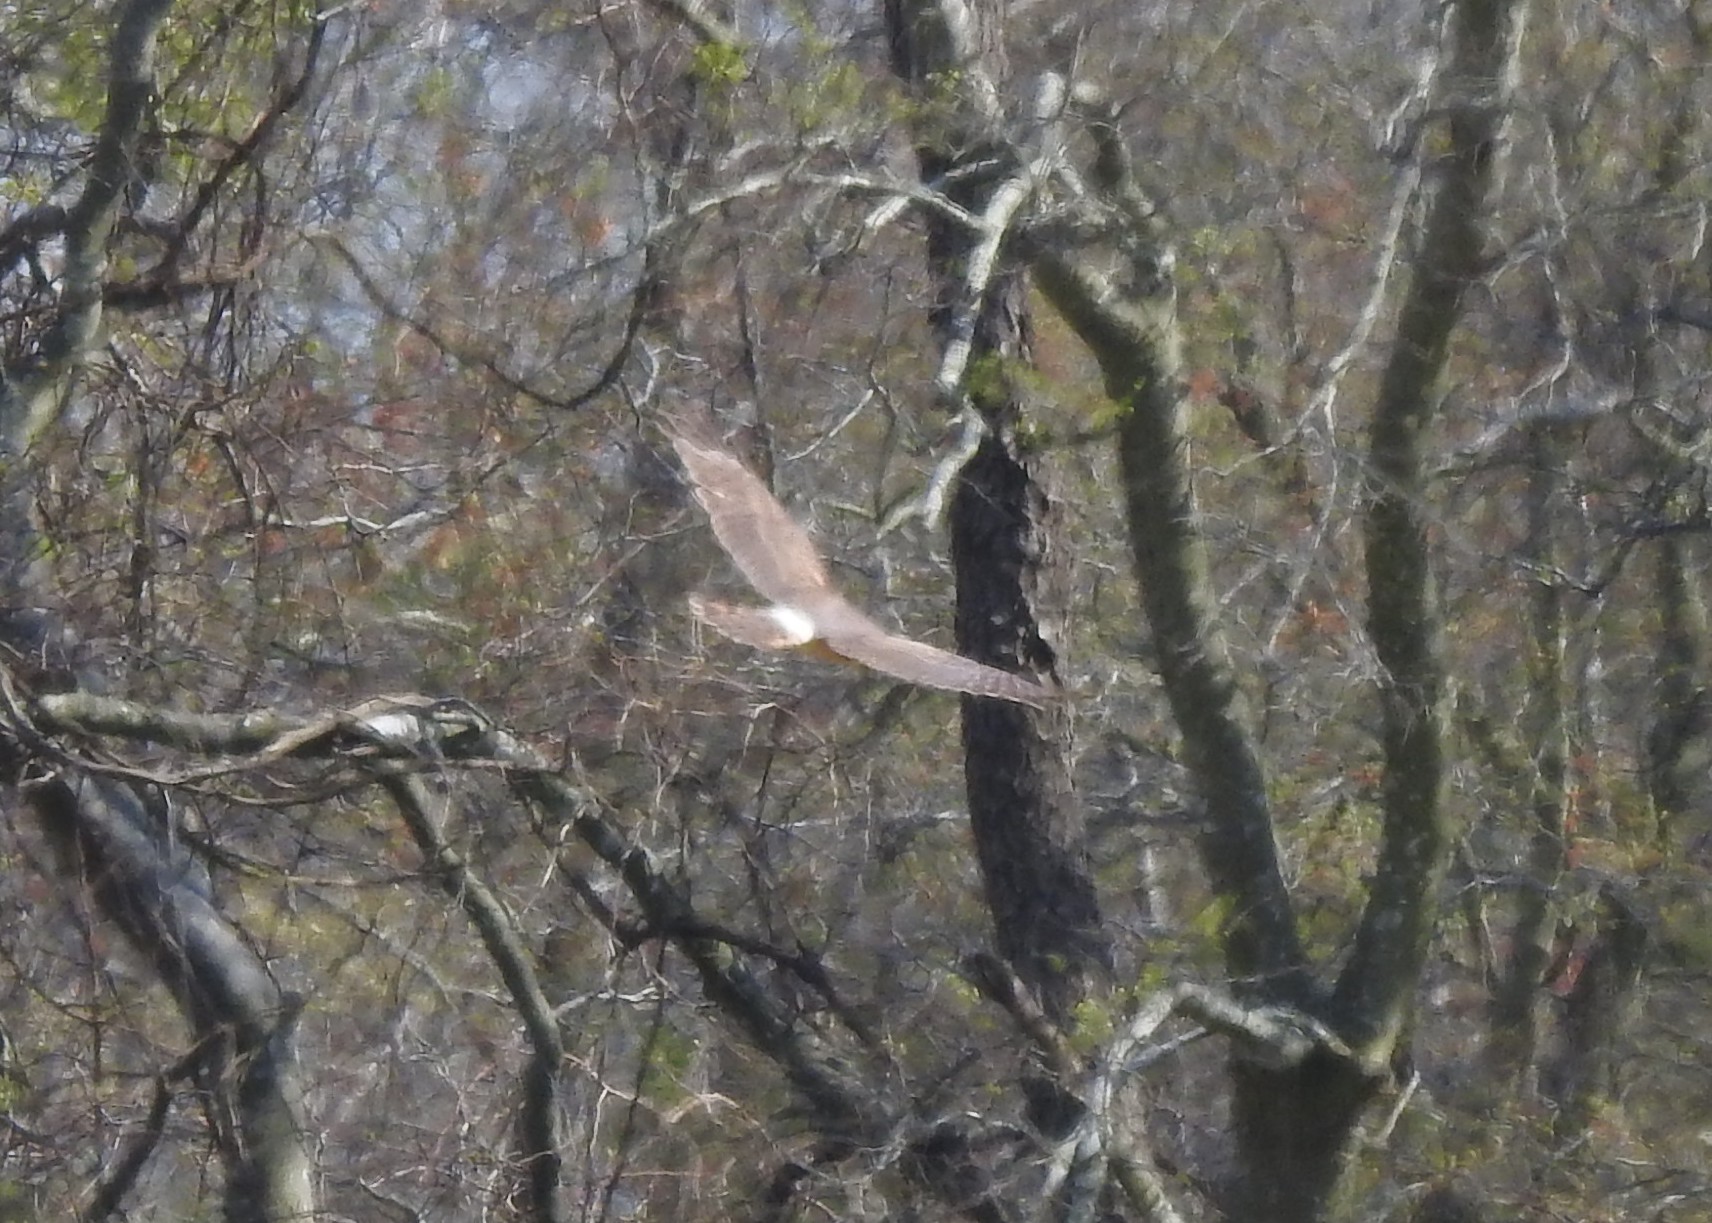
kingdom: Animalia
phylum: Chordata
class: Aves
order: Accipitriformes
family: Accipitridae
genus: Circus
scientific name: Circus cyaneus
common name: Hen harrier
